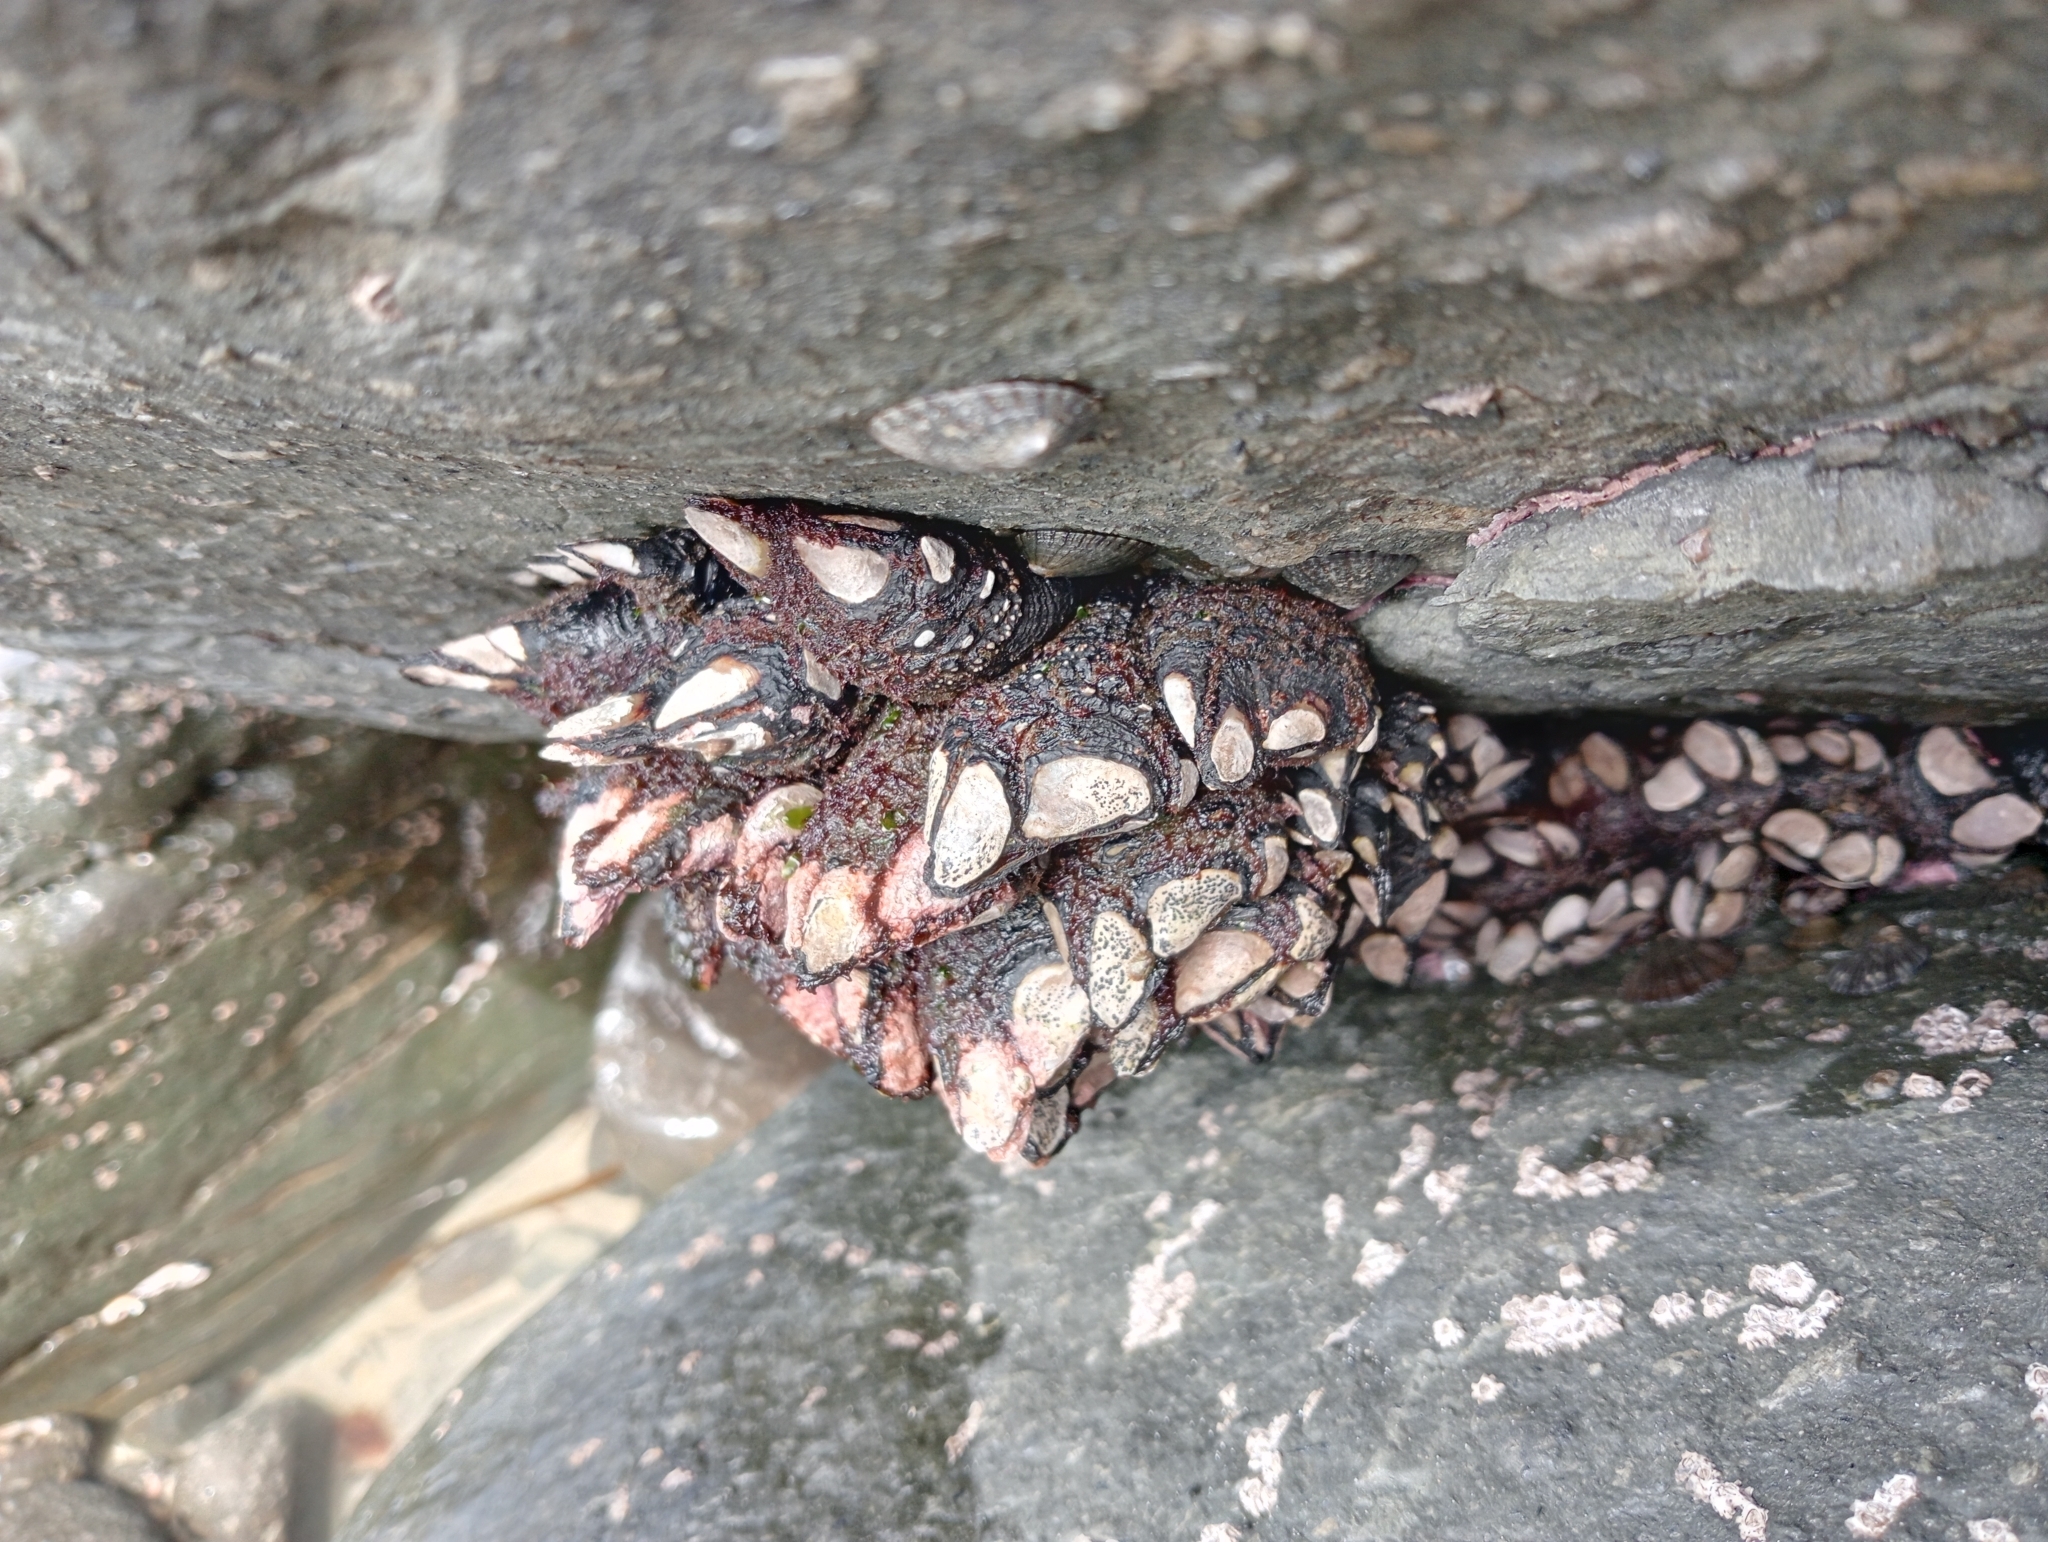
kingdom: Animalia
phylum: Arthropoda
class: Maxillopoda
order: Pedunculata
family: Calanticidae
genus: Calantica
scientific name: Calantica spinosa
